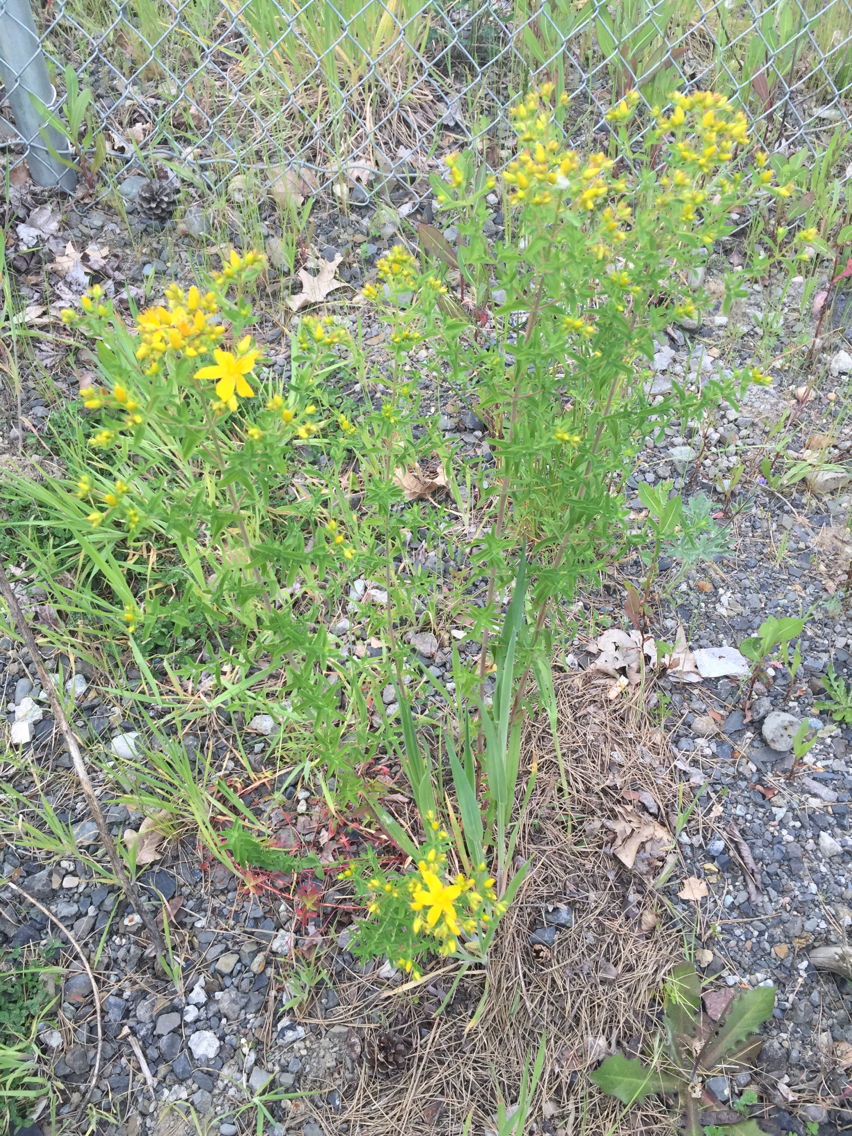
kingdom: Plantae
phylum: Tracheophyta
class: Magnoliopsida
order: Malpighiales
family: Hypericaceae
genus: Hypericum
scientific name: Hypericum perforatum
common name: Common st. johnswort
